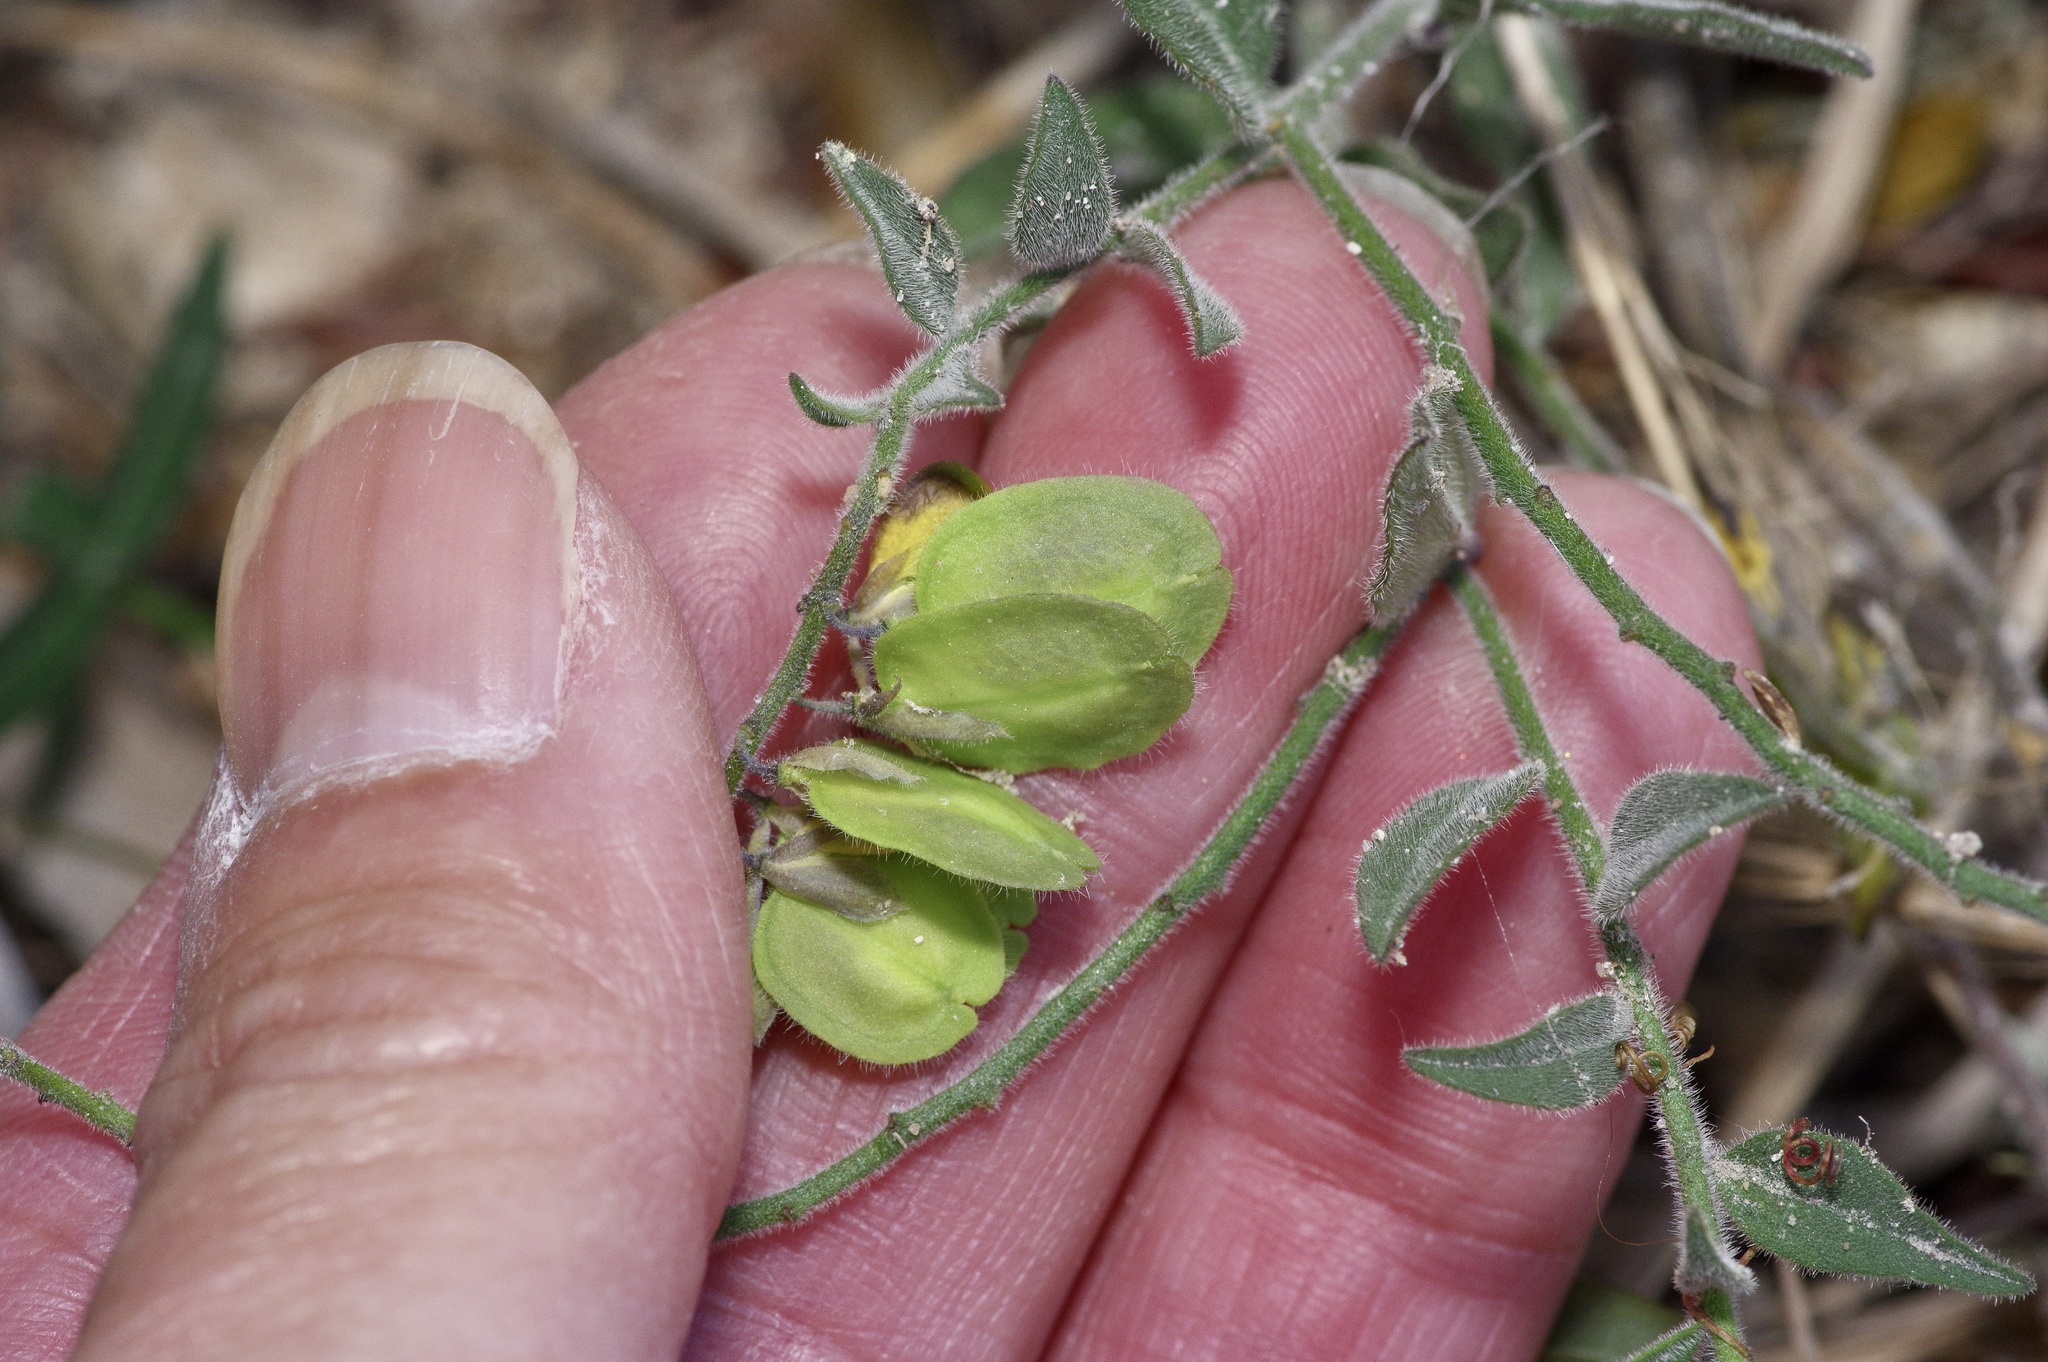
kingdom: Plantae
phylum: Tracheophyta
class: Magnoliopsida
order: Fabales
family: Polygalaceae
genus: Hebecarpa
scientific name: Hebecarpa ovatifolia
